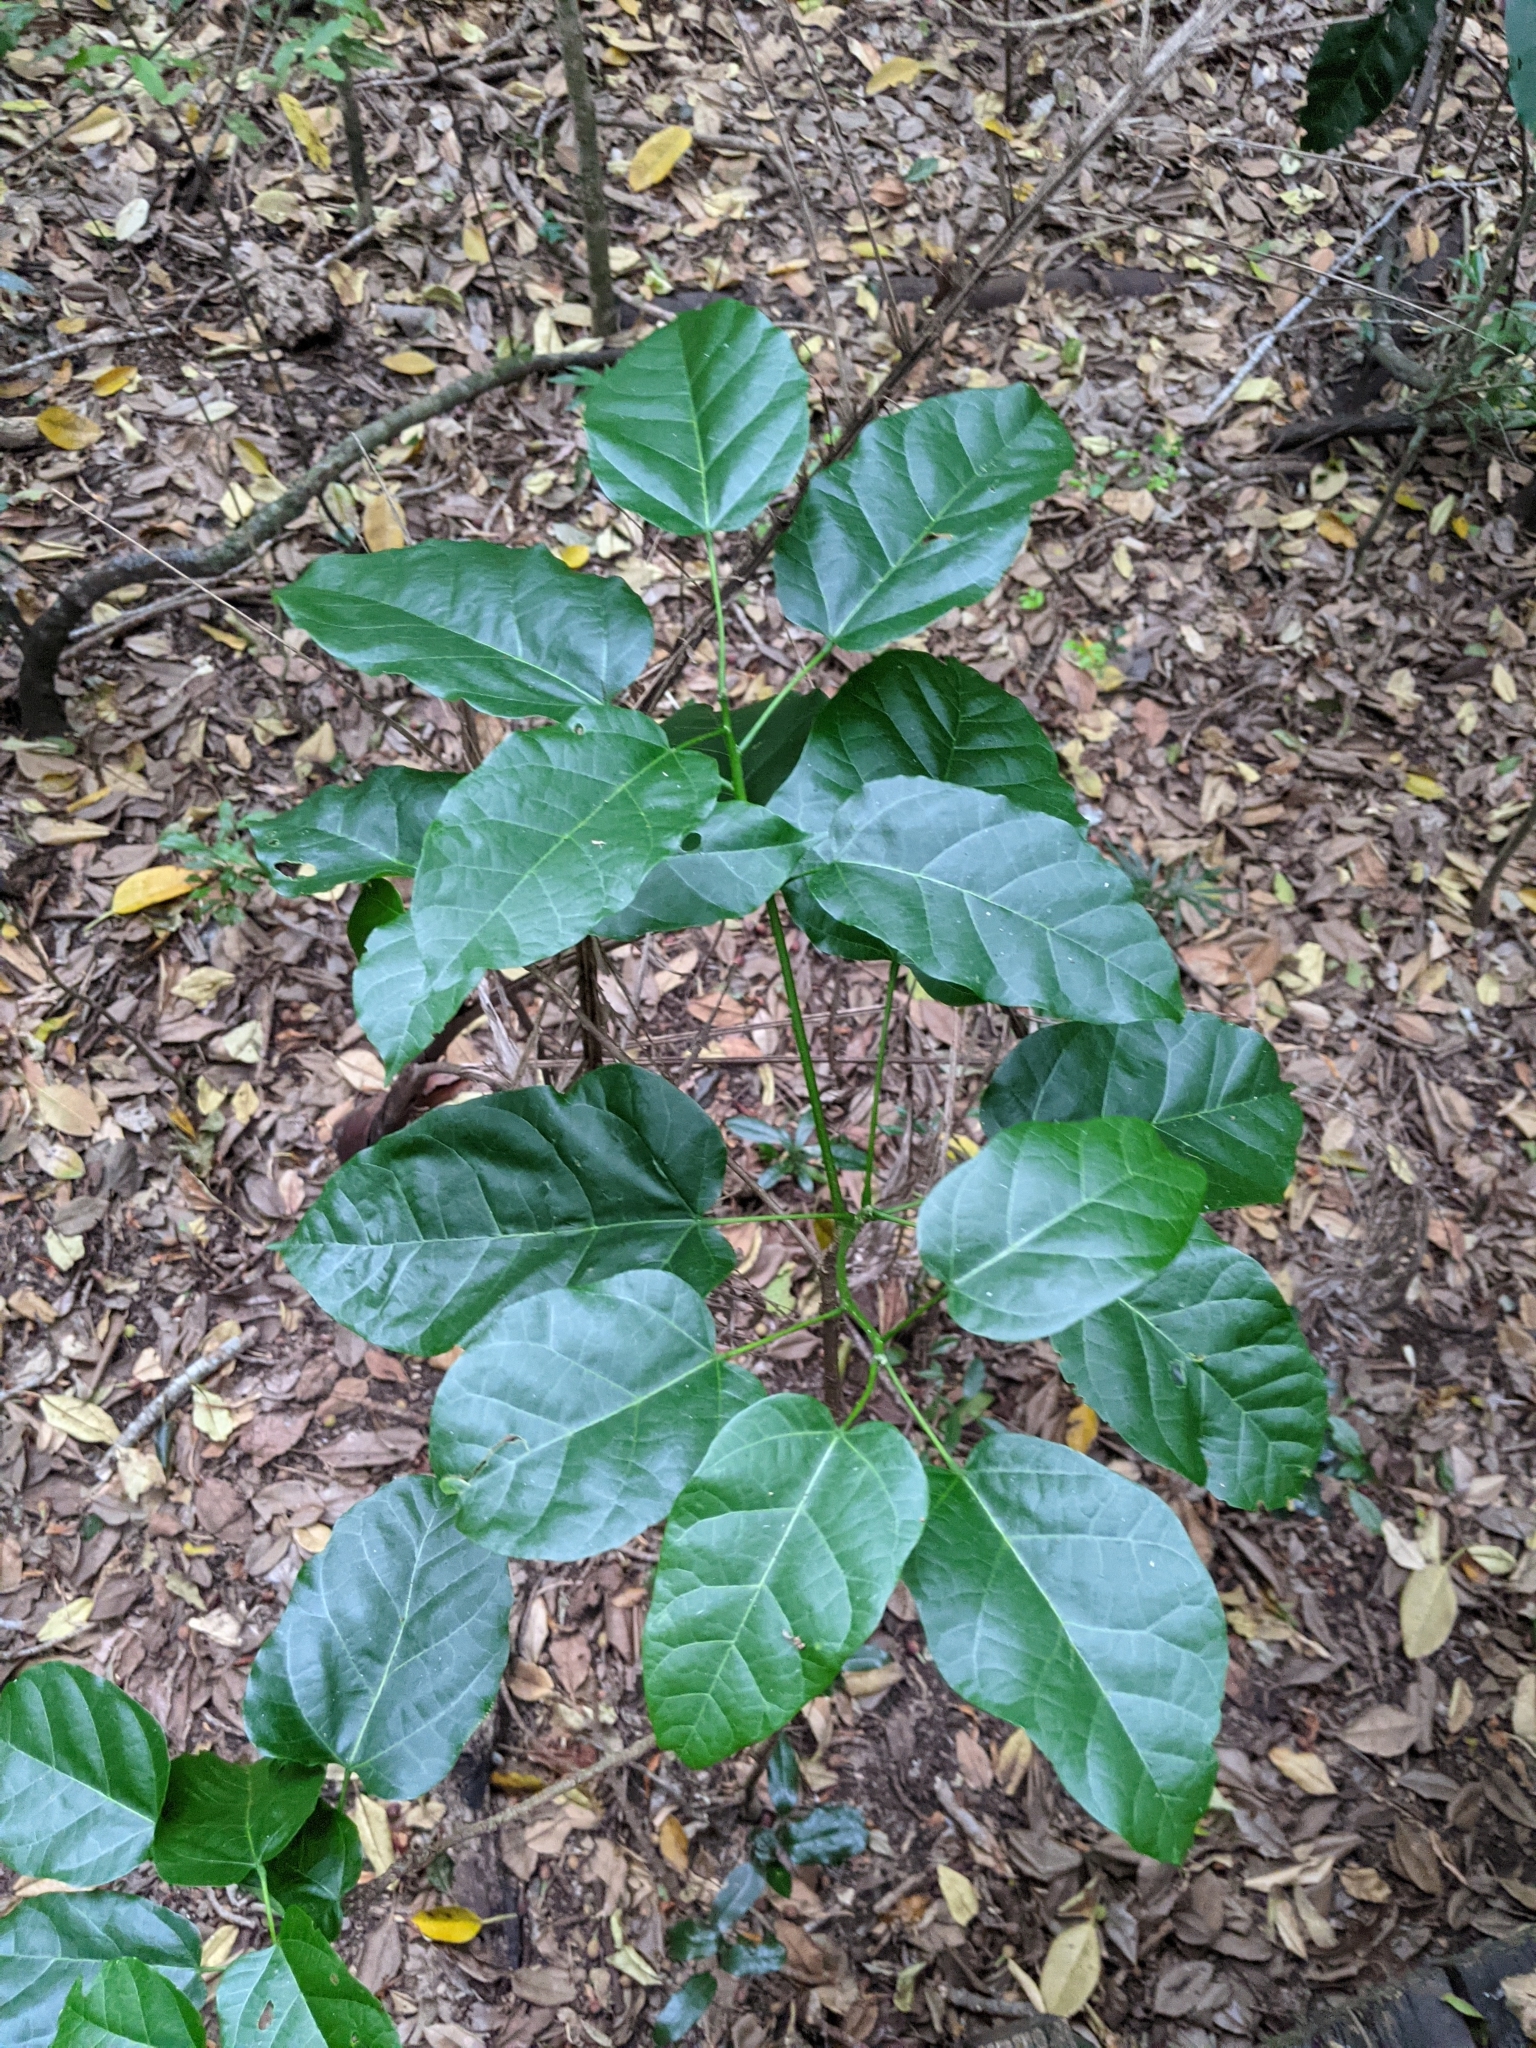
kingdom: Plantae
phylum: Tracheophyta
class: Magnoliopsida
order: Malvales
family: Malvaceae
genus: Sterculia
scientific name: Sterculia quadrifida
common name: Orange-fruit kurrajong
